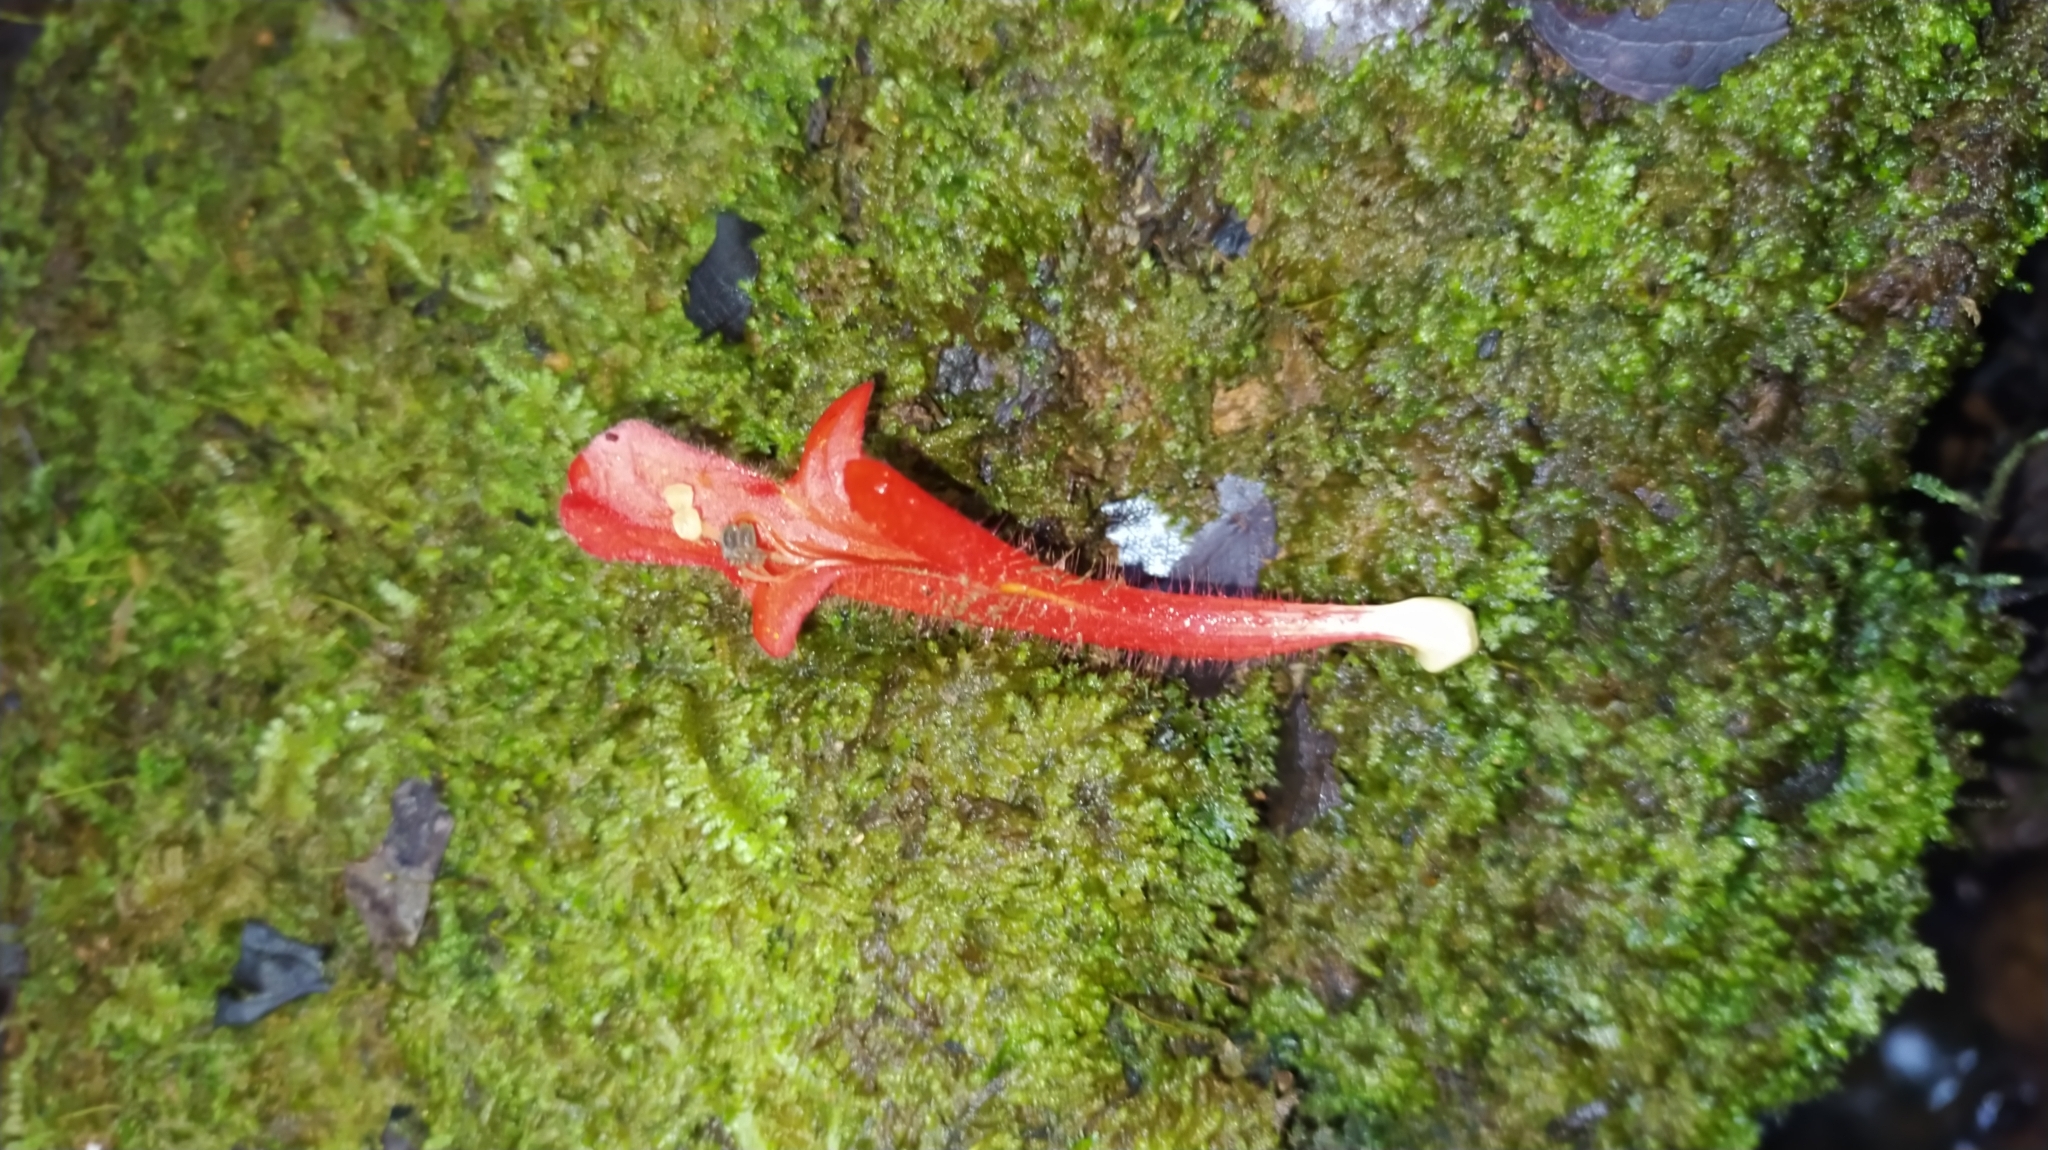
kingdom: Plantae
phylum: Tracheophyta
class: Magnoliopsida
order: Lamiales
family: Gesneriaceae
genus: Columnea
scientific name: Columnea oerstediana
